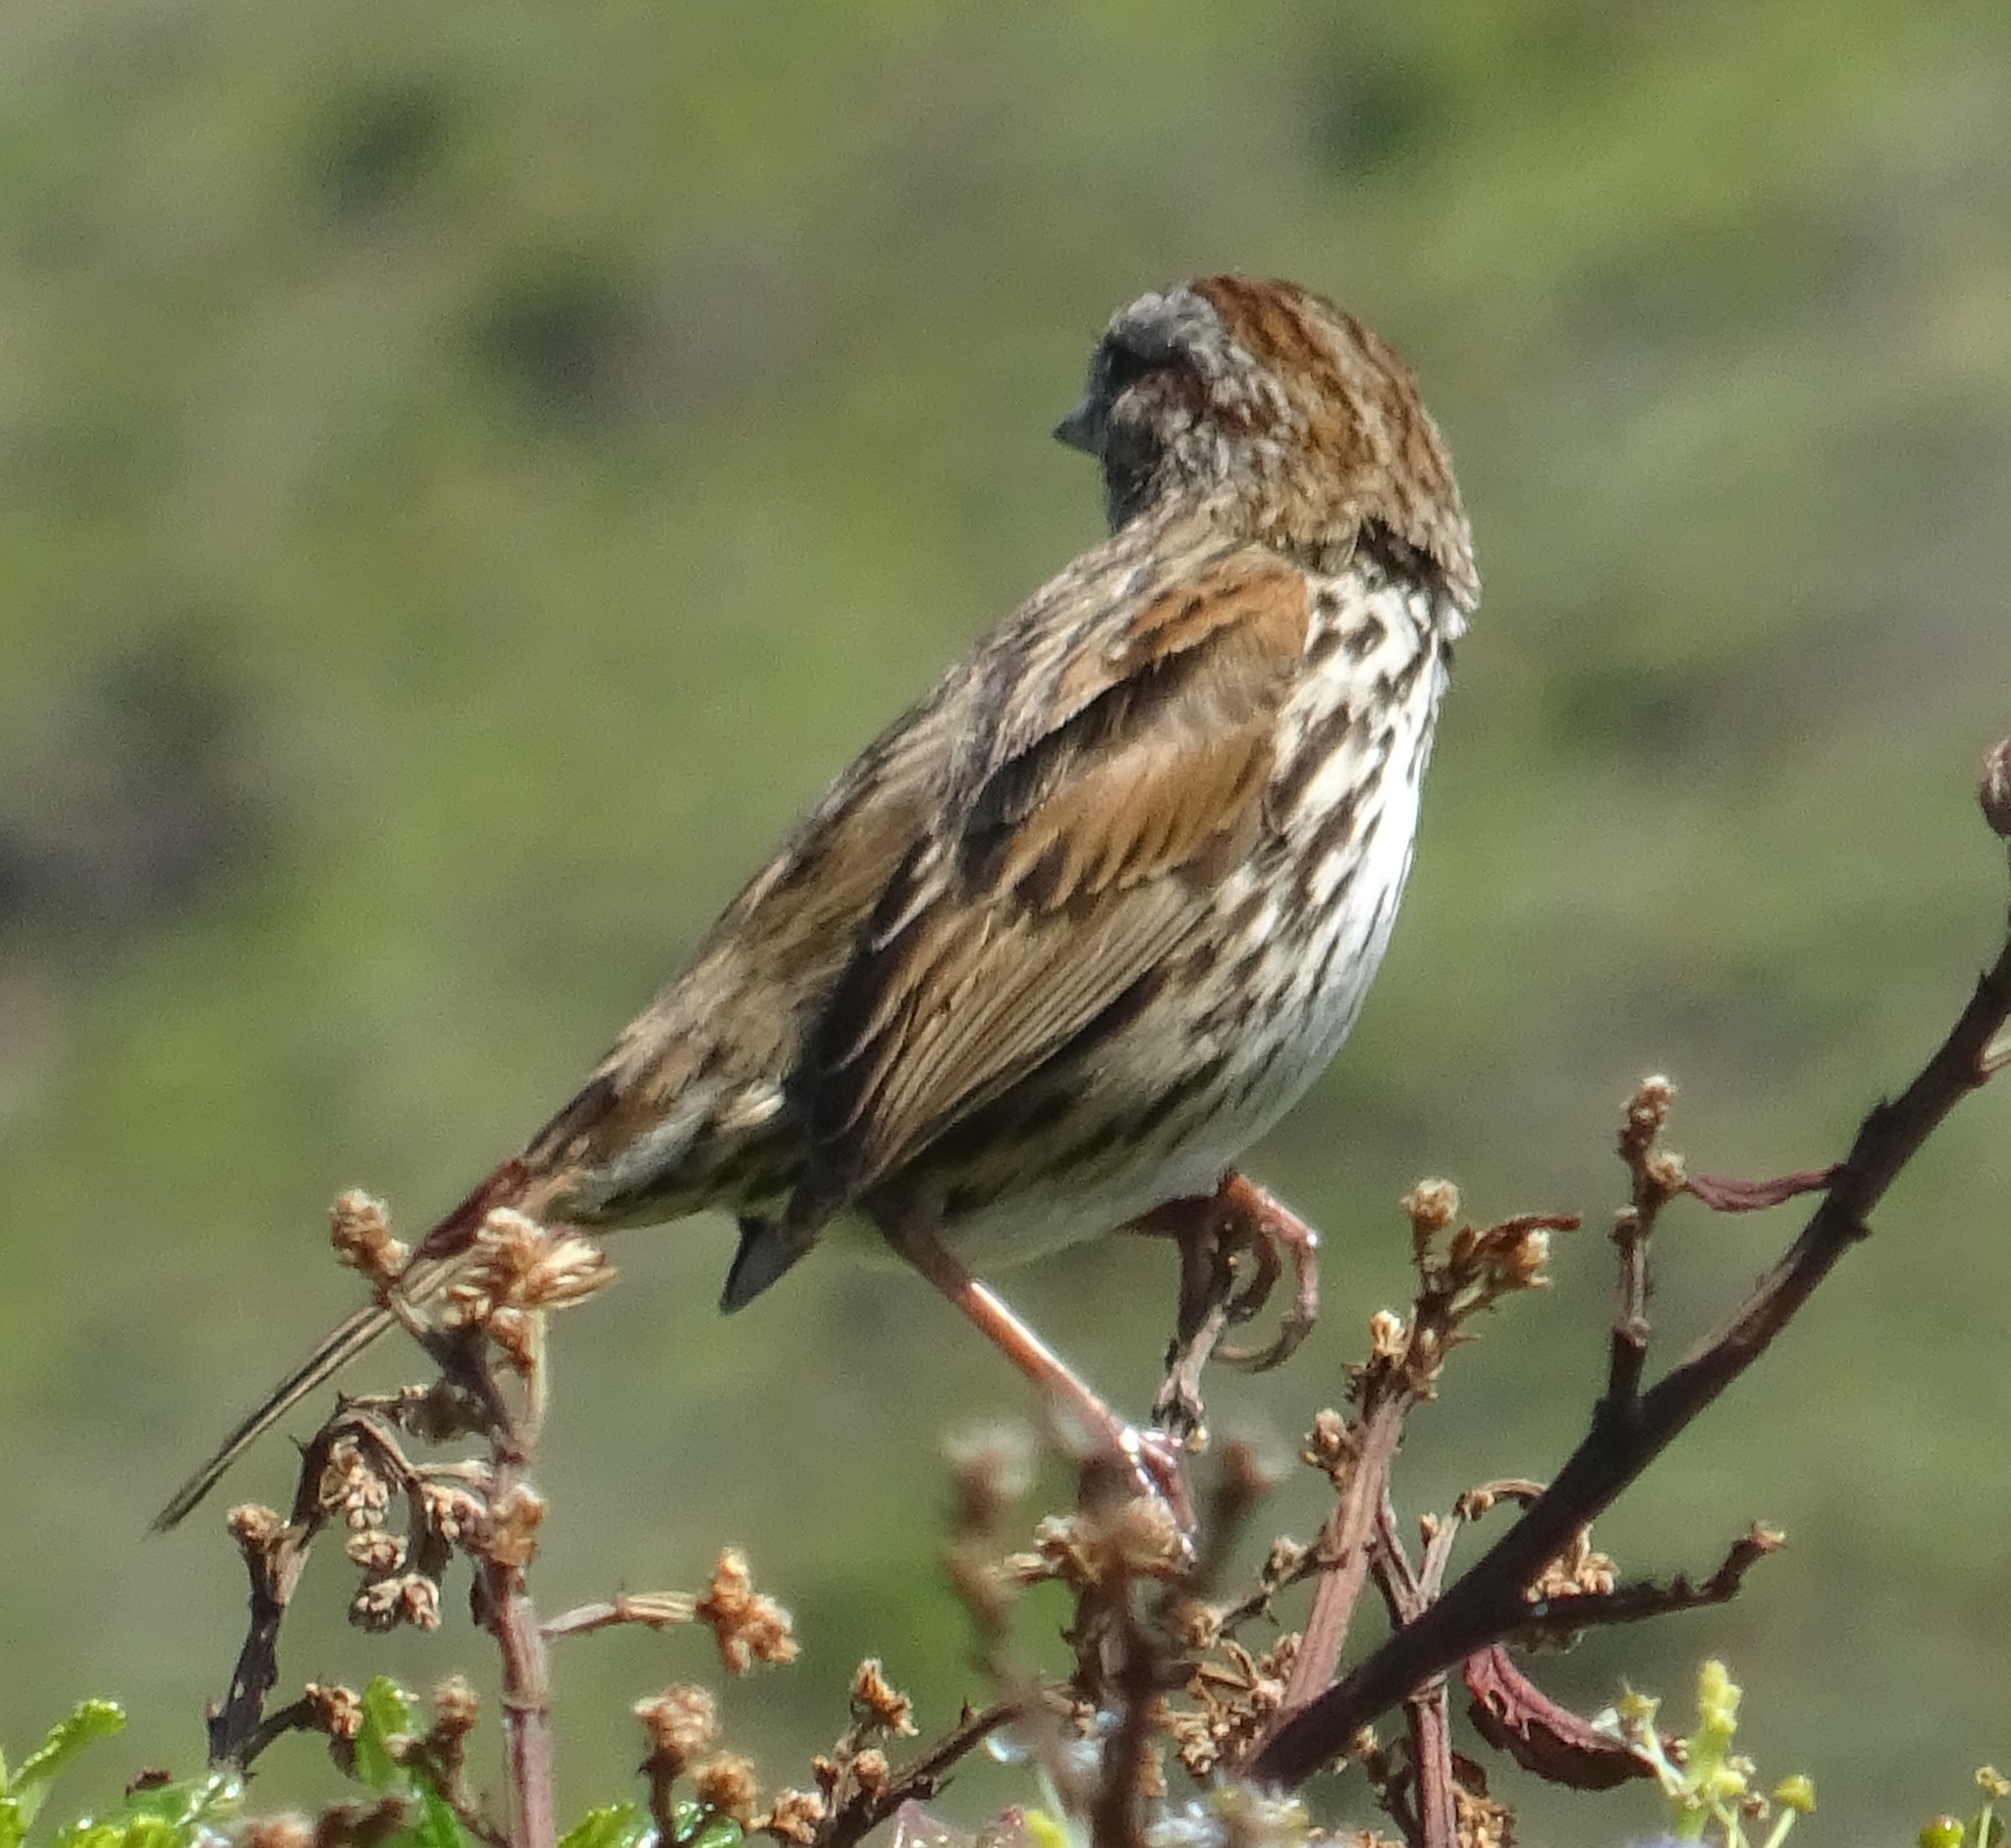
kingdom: Animalia
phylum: Chordata
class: Aves
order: Passeriformes
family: Passerellidae
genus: Melospiza
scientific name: Melospiza melodia
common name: Song sparrow
